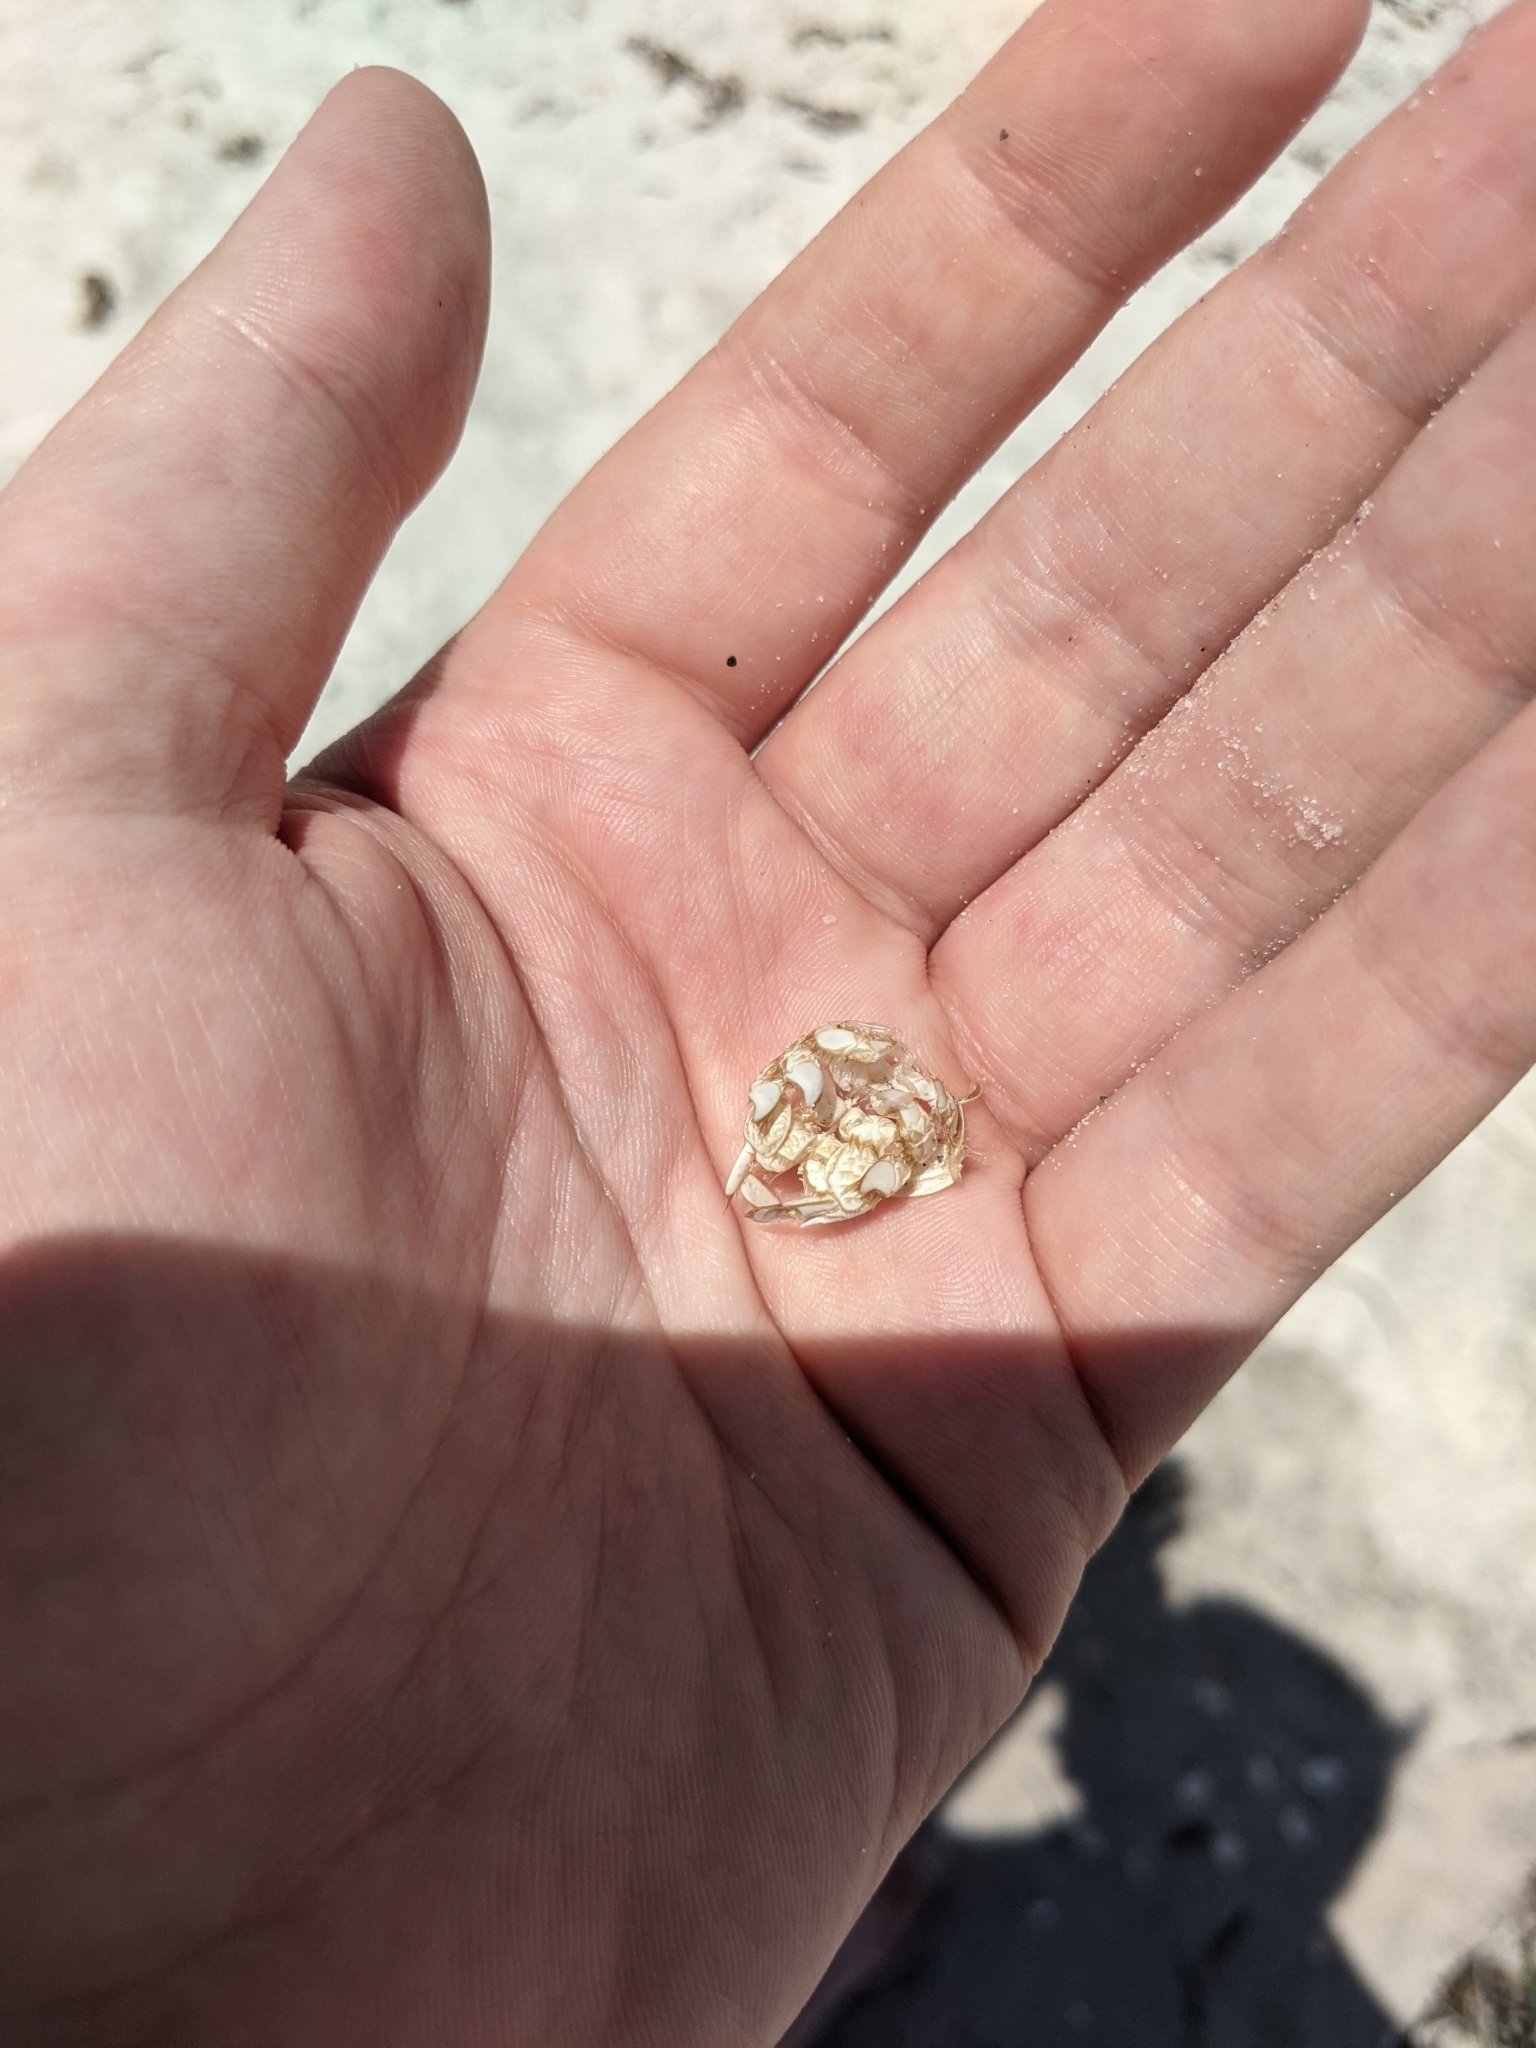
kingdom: Animalia
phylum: Arthropoda
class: Malacostraca
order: Decapoda
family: Hippidae
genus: Emerita
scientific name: Emerita talpoida
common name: Atlantic sand crab
